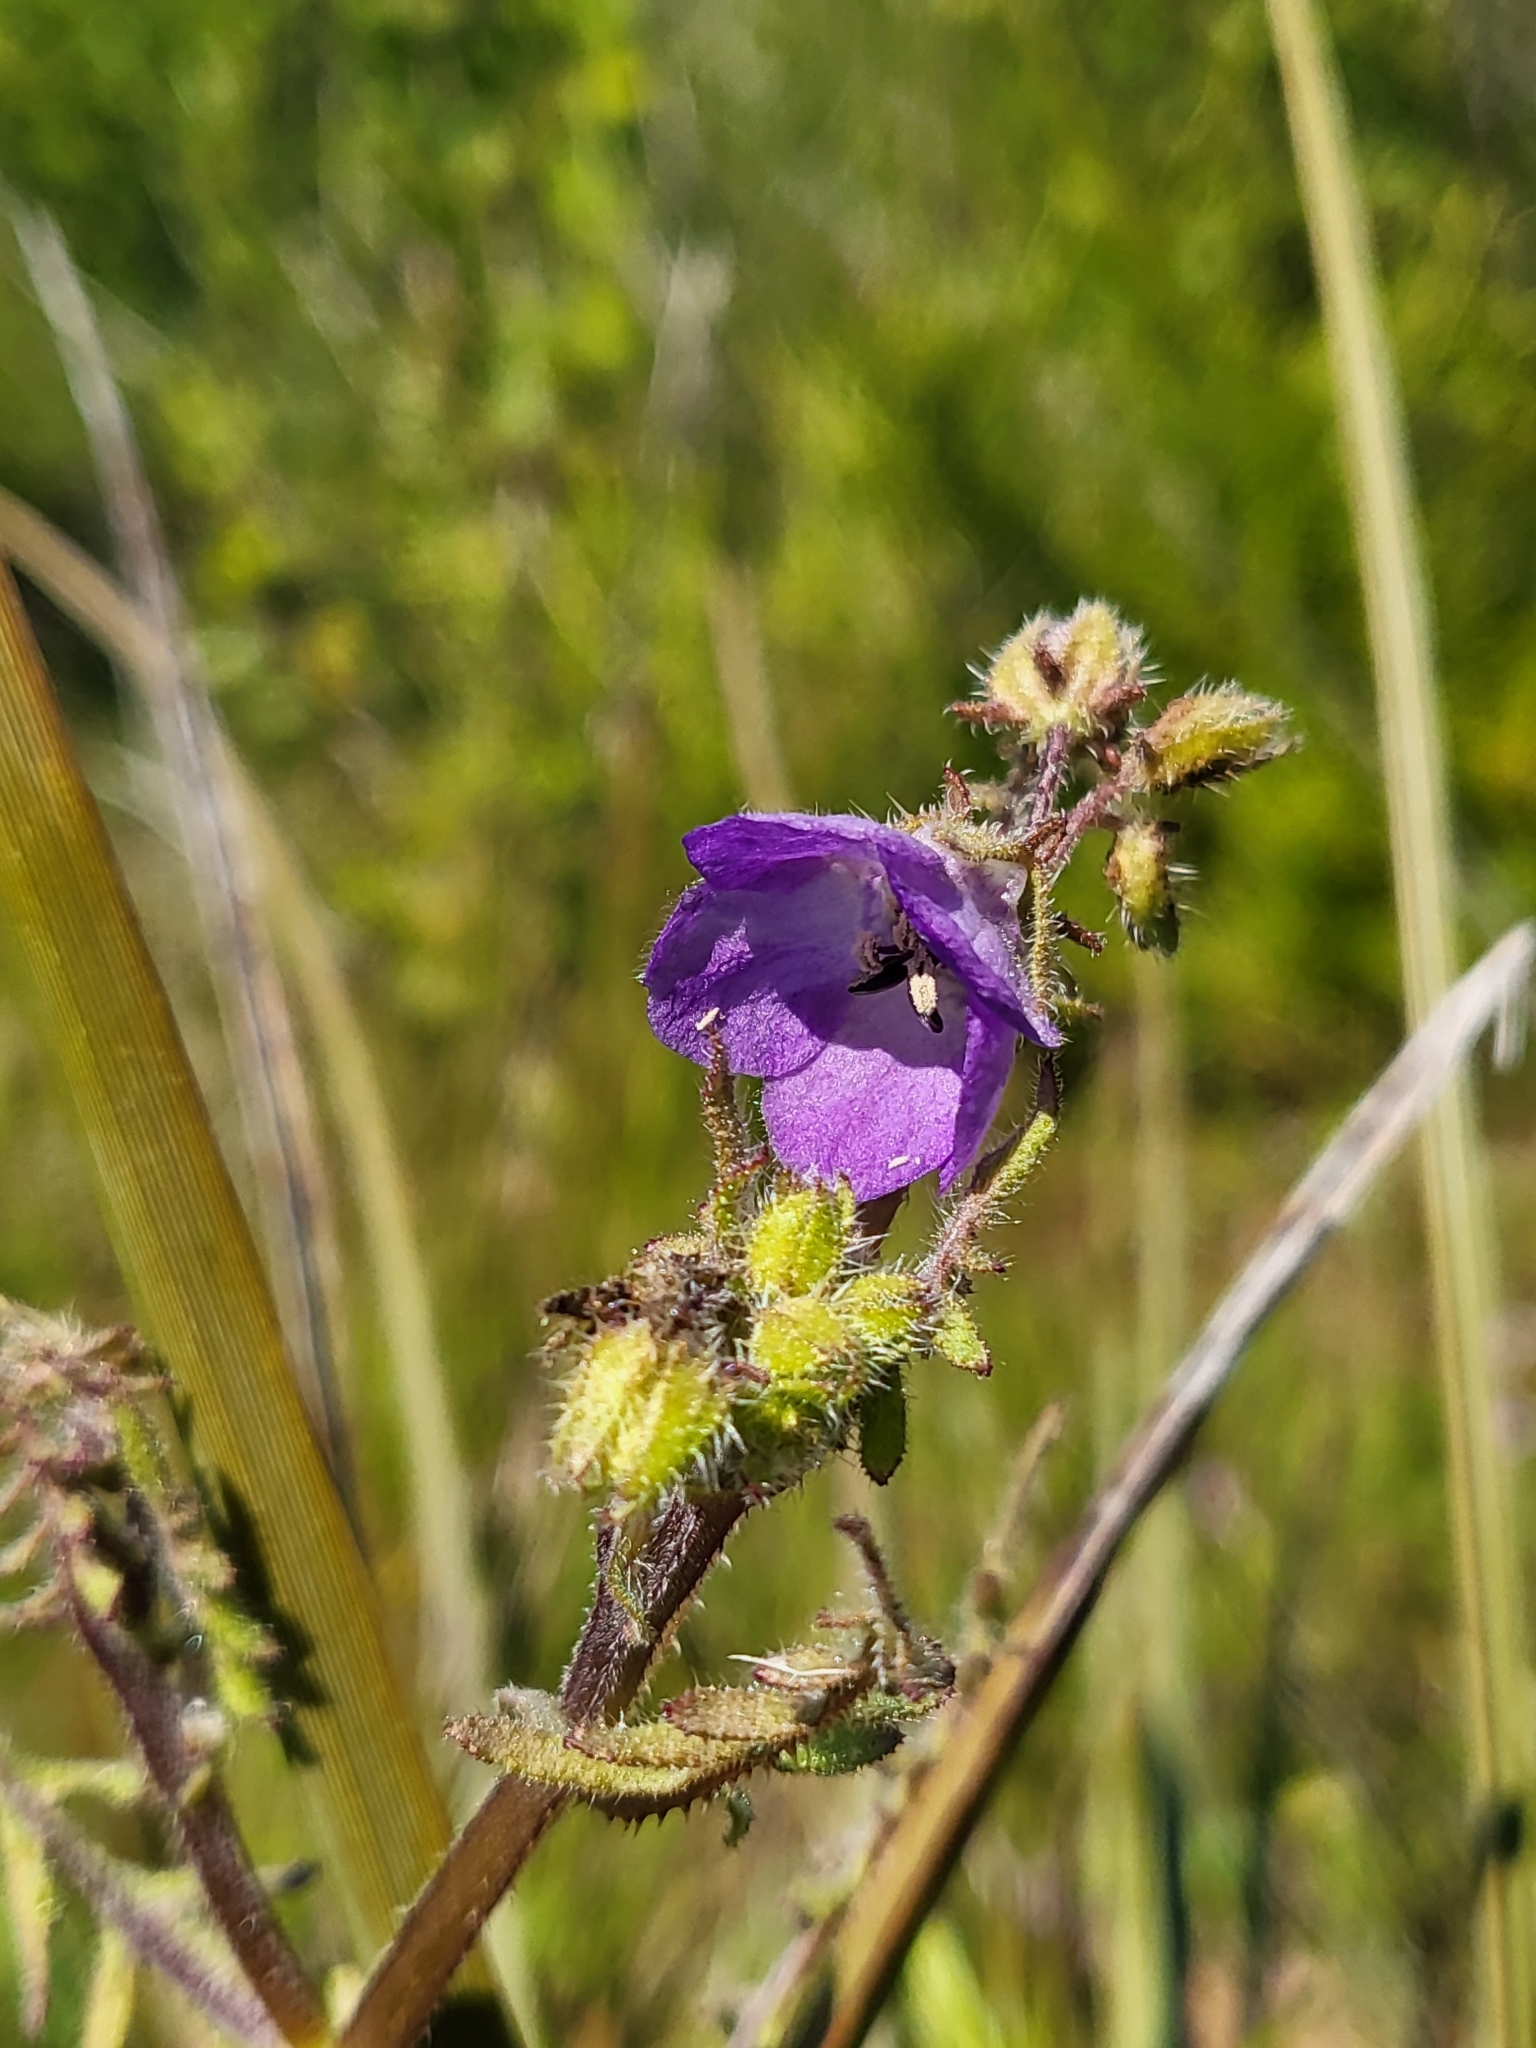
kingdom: Plantae
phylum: Tracheophyta
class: Magnoliopsida
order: Boraginales
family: Hydrophyllaceae
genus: Pholistoma
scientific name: Pholistoma auritum
